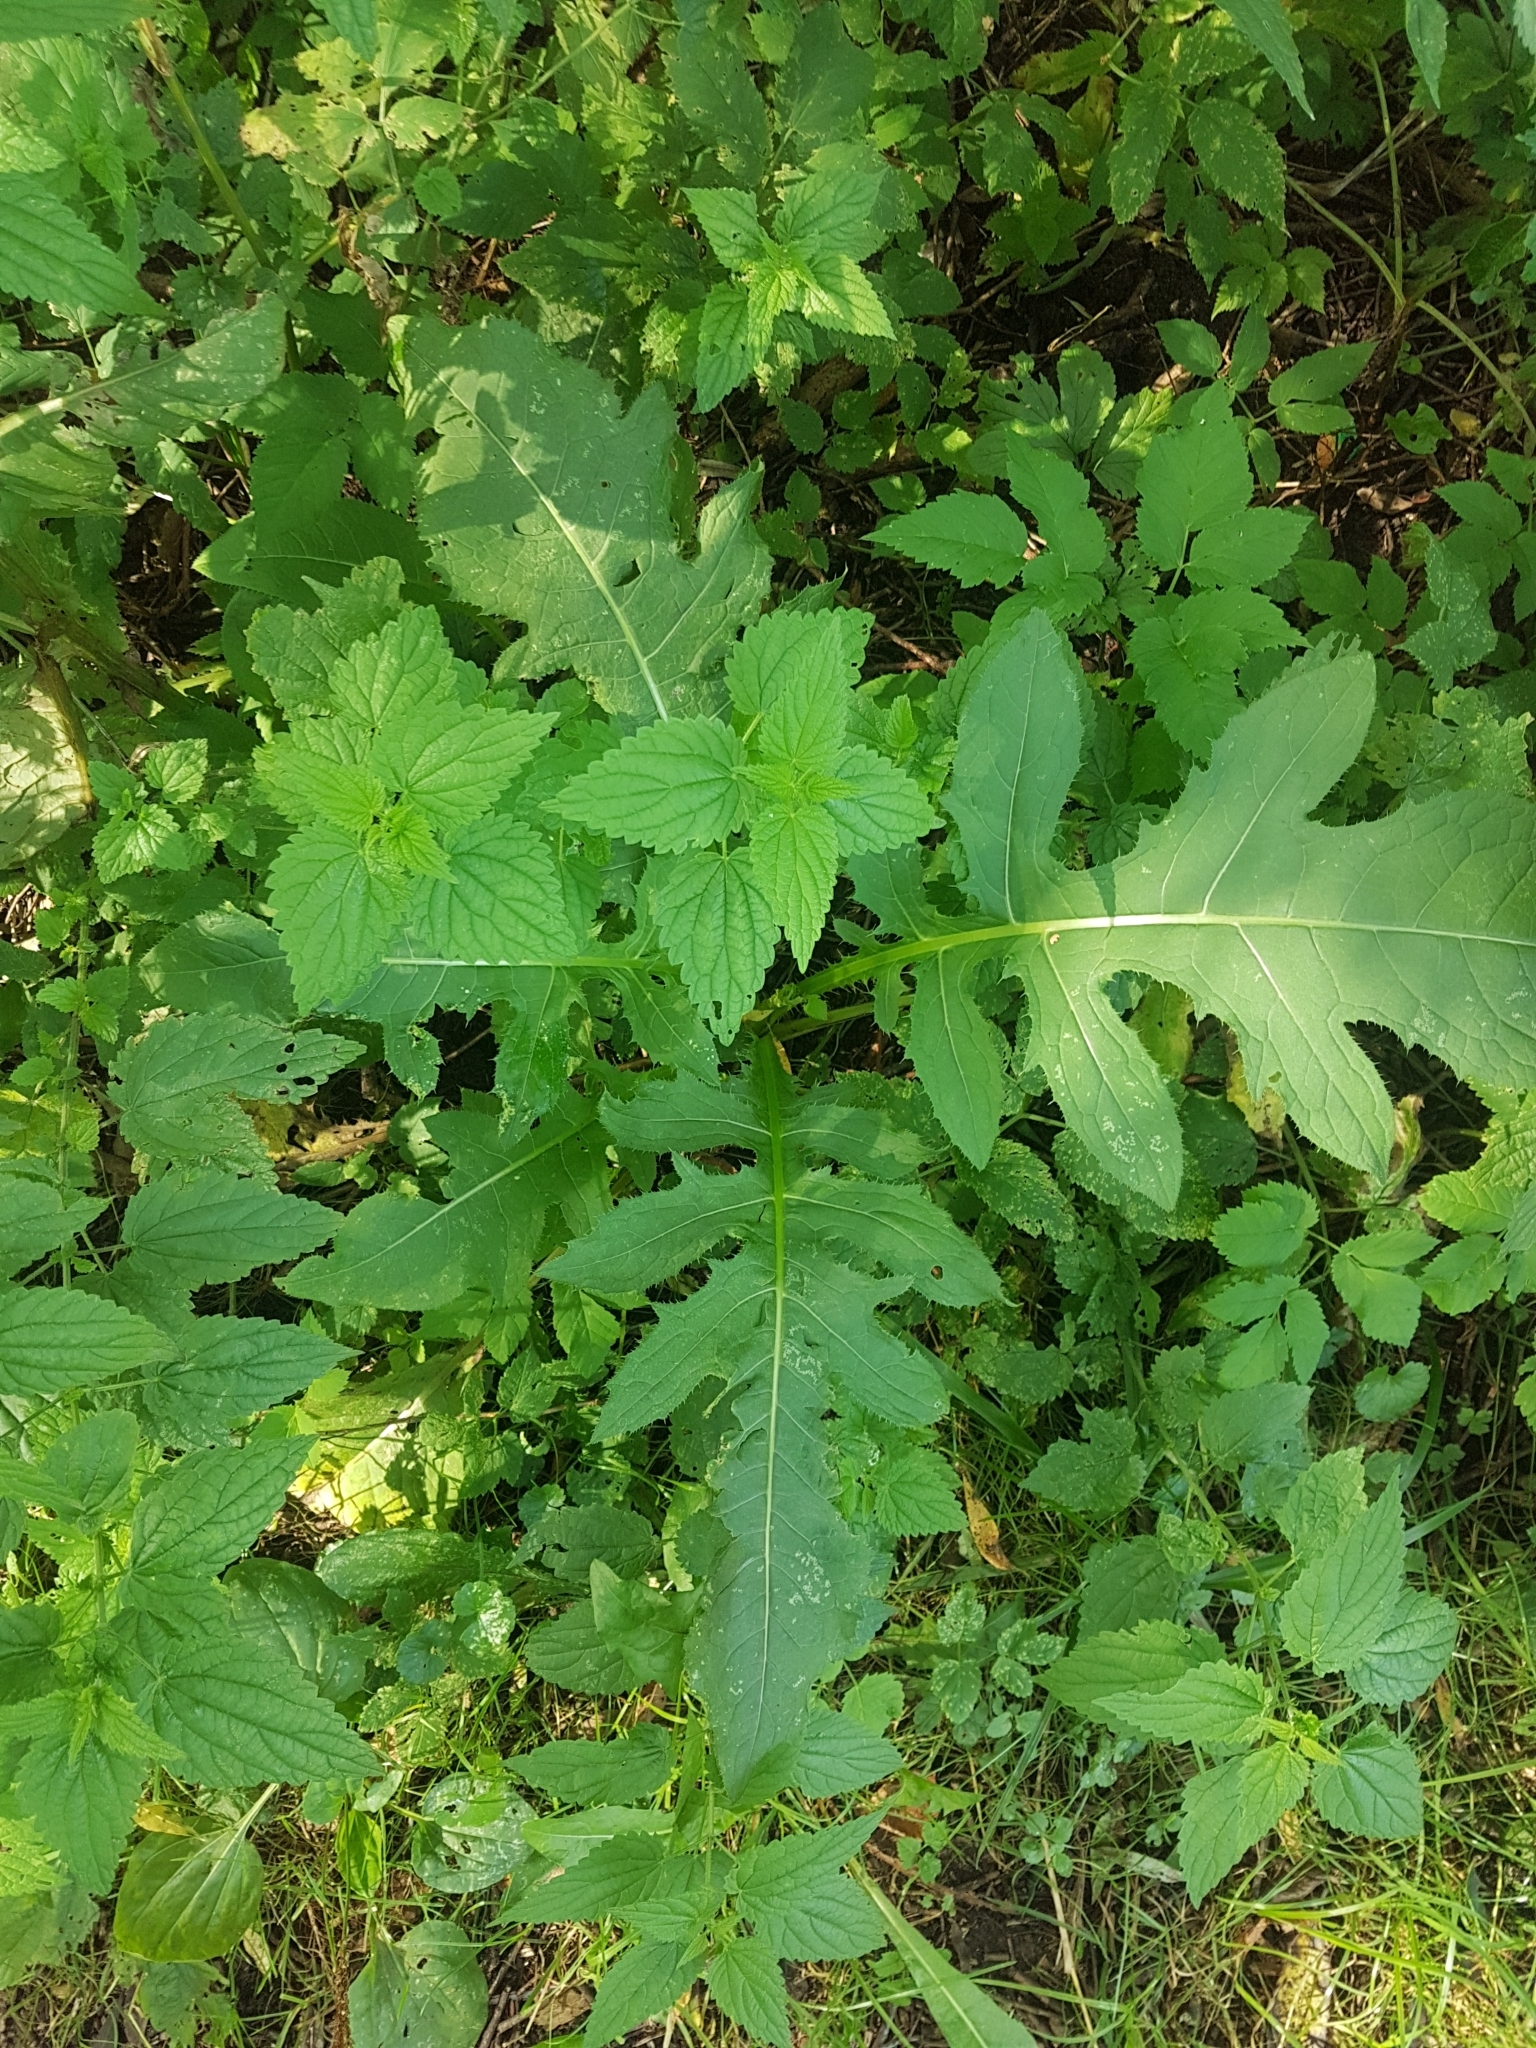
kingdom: Plantae
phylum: Tracheophyta
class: Magnoliopsida
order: Asterales
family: Asteraceae
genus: Cirsium
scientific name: Cirsium oleraceum
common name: Cabbage thistle
